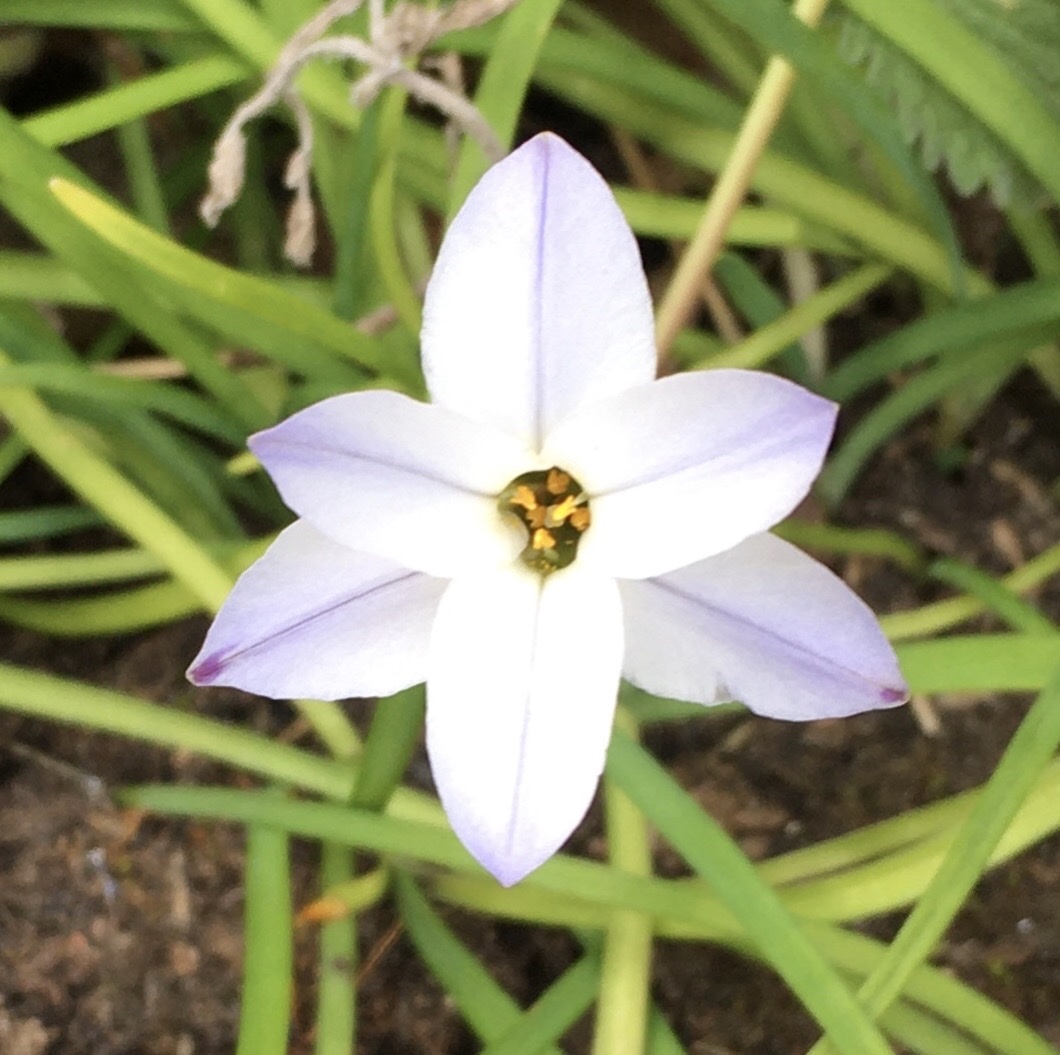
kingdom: Plantae
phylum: Tracheophyta
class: Liliopsida
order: Asparagales
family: Amaryllidaceae
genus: Ipheion
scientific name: Ipheion uniflorum
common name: Spring starflower
